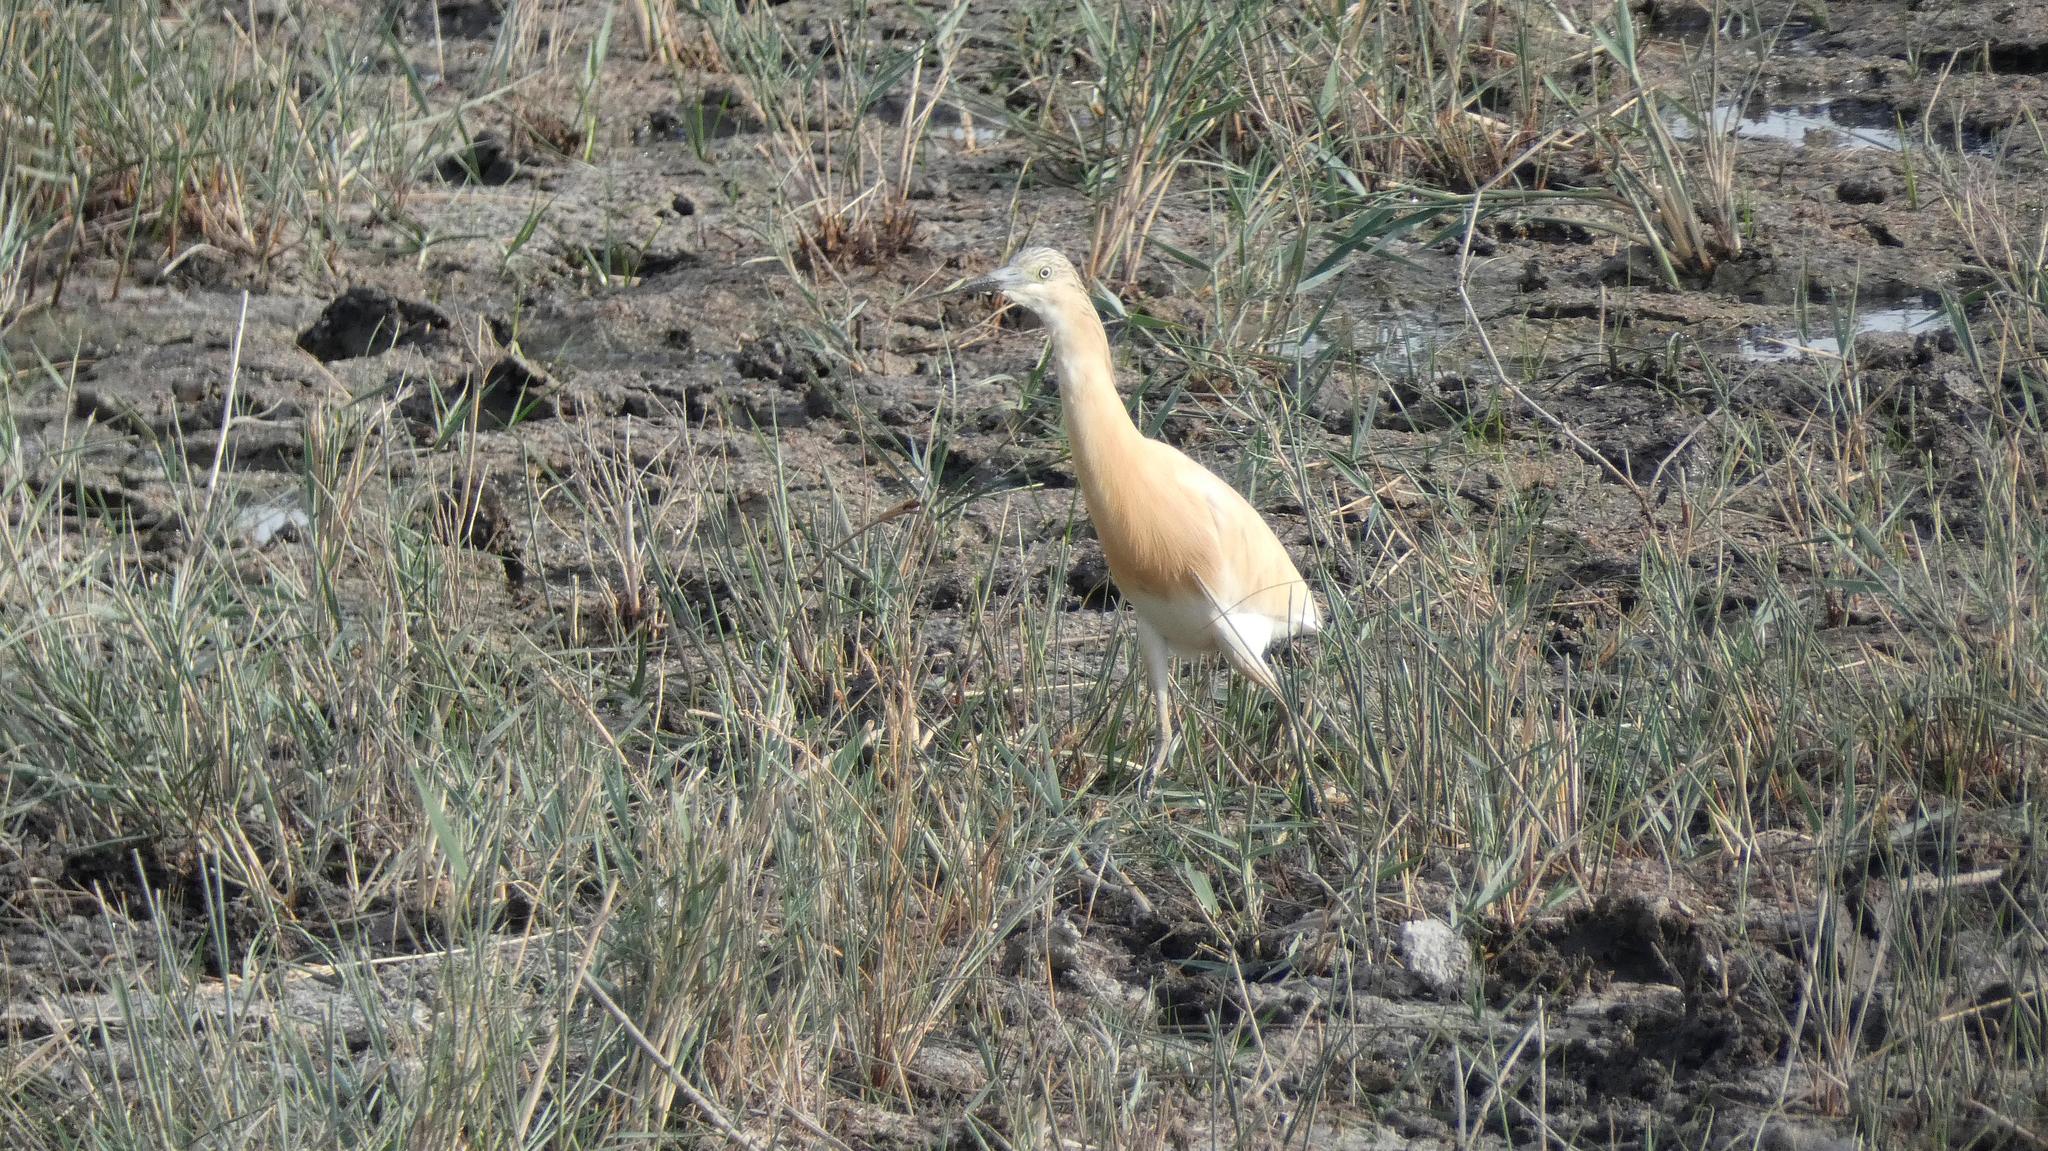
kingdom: Animalia
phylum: Chordata
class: Aves
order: Pelecaniformes
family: Ardeidae
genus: Ardeola
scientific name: Ardeola ralloides
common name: Squacco heron
